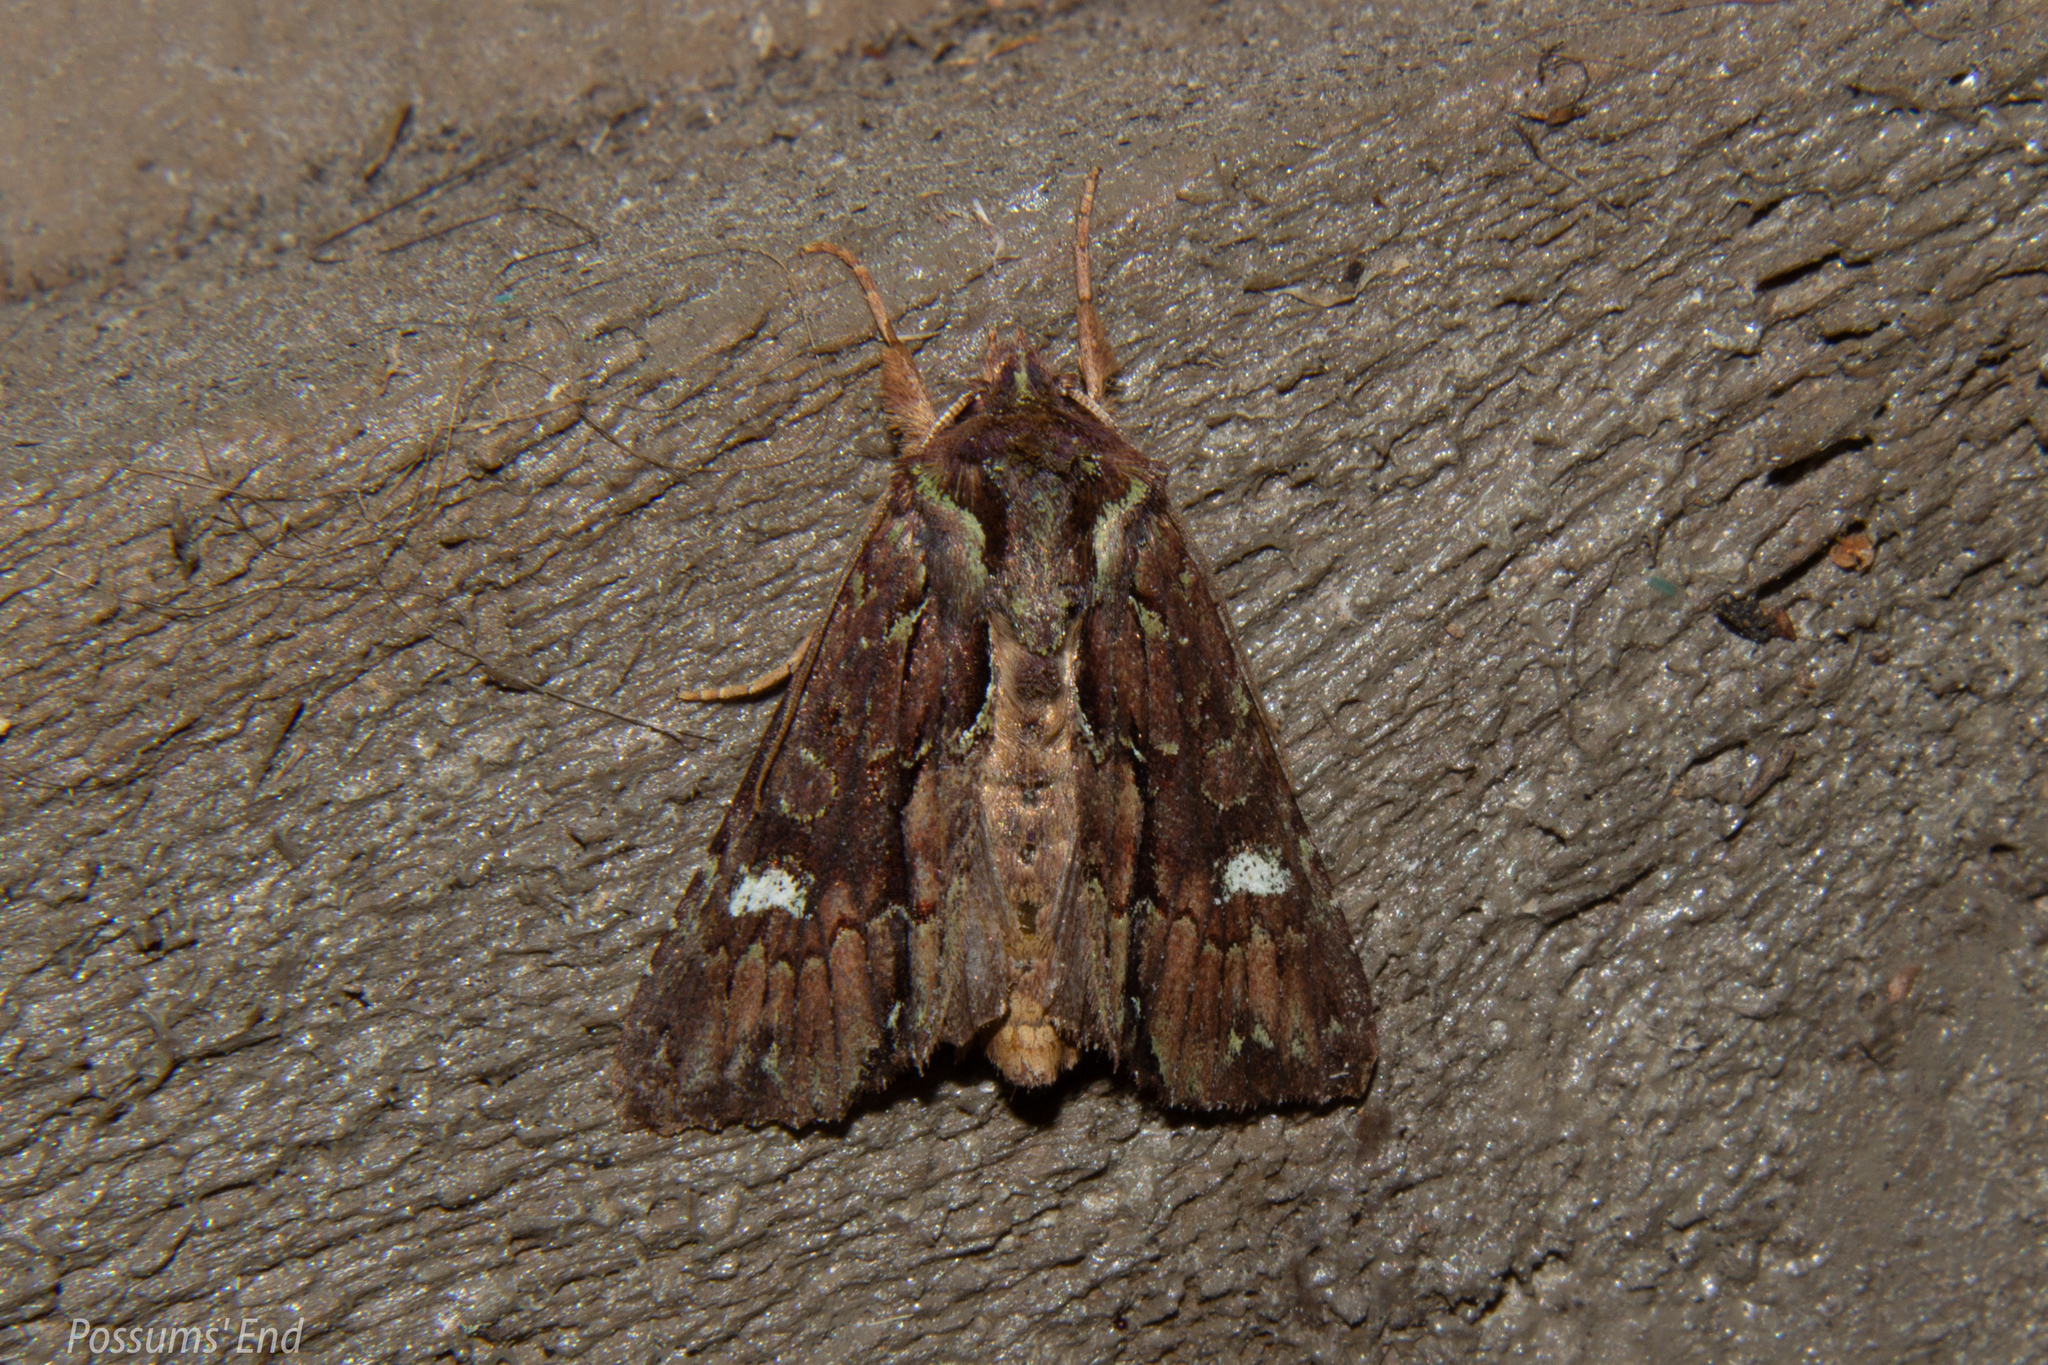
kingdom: Animalia
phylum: Arthropoda
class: Insecta
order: Lepidoptera
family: Noctuidae
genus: Meterana
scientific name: Meterana diatmeta
